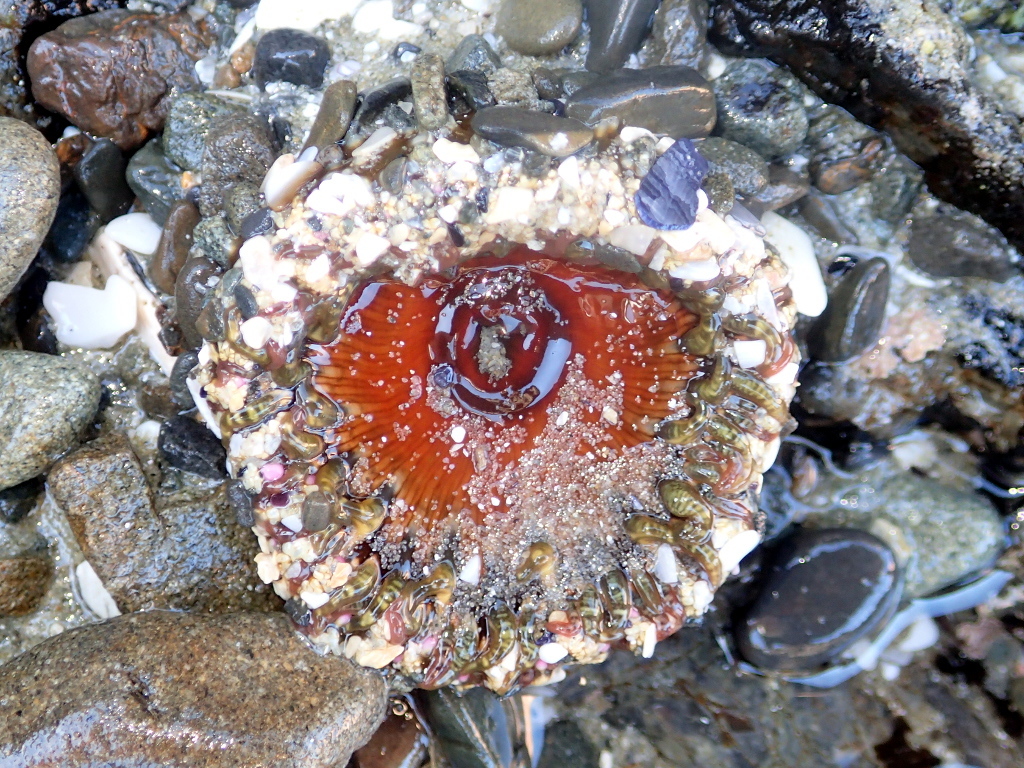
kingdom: Animalia
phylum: Cnidaria
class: Anthozoa
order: Actiniaria
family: Actiniidae
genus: Oulactis
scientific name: Oulactis muscosa
